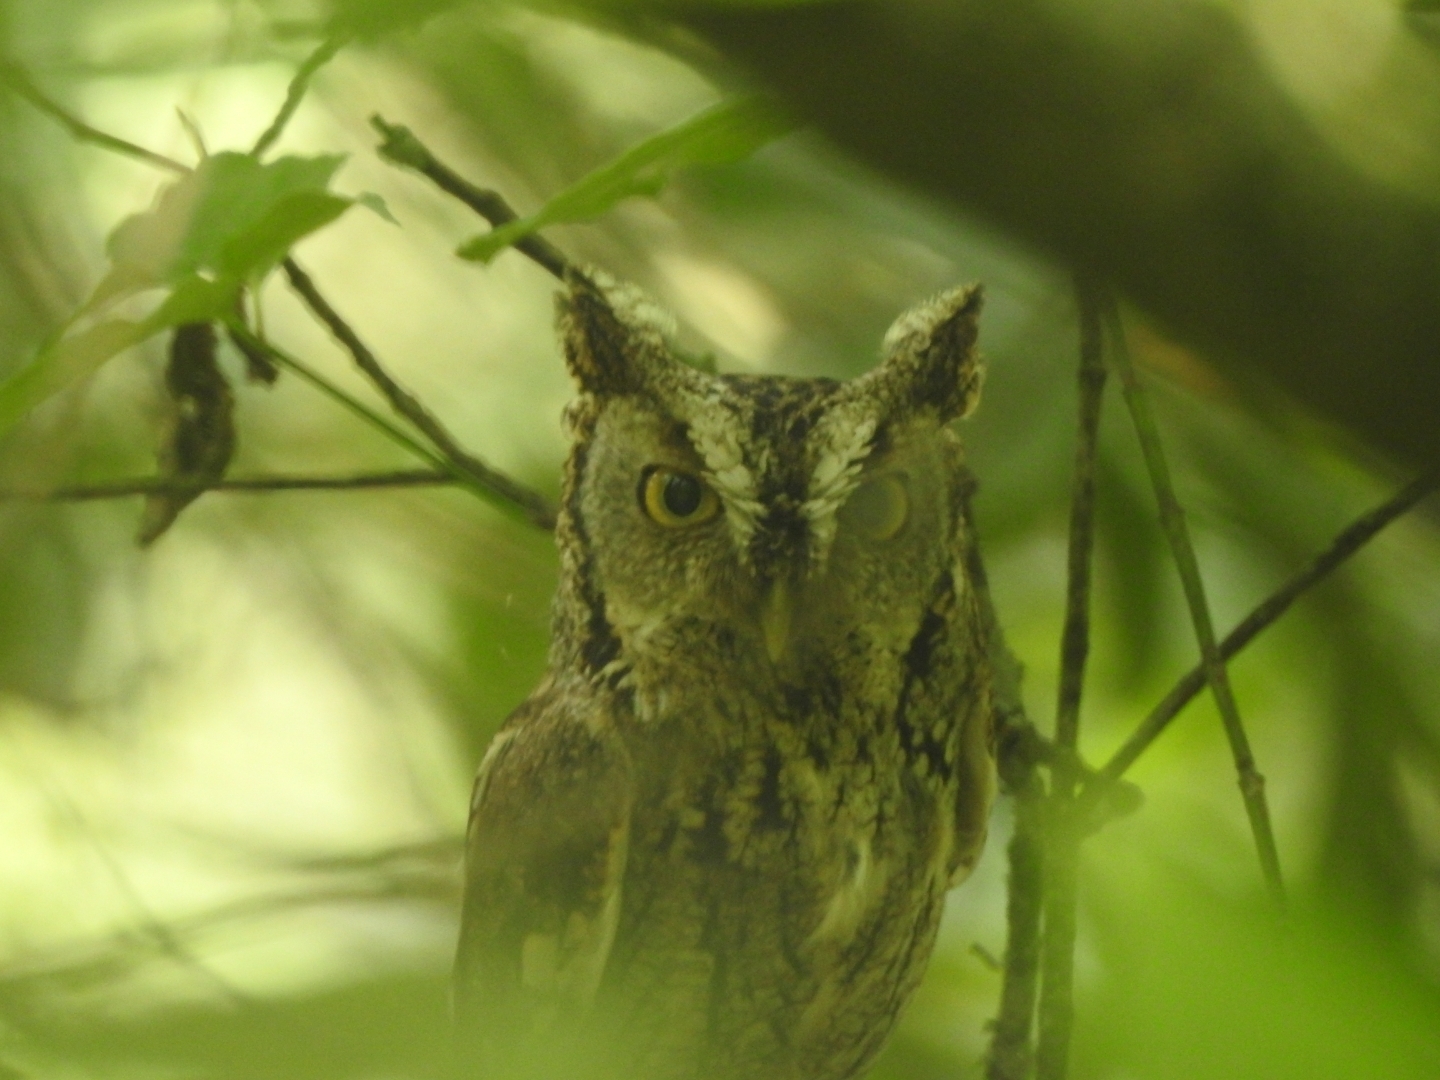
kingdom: Animalia
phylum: Chordata
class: Aves
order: Strigiformes
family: Strigidae
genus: Megascops
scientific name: Megascops asio
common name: Eastern screech-owl
